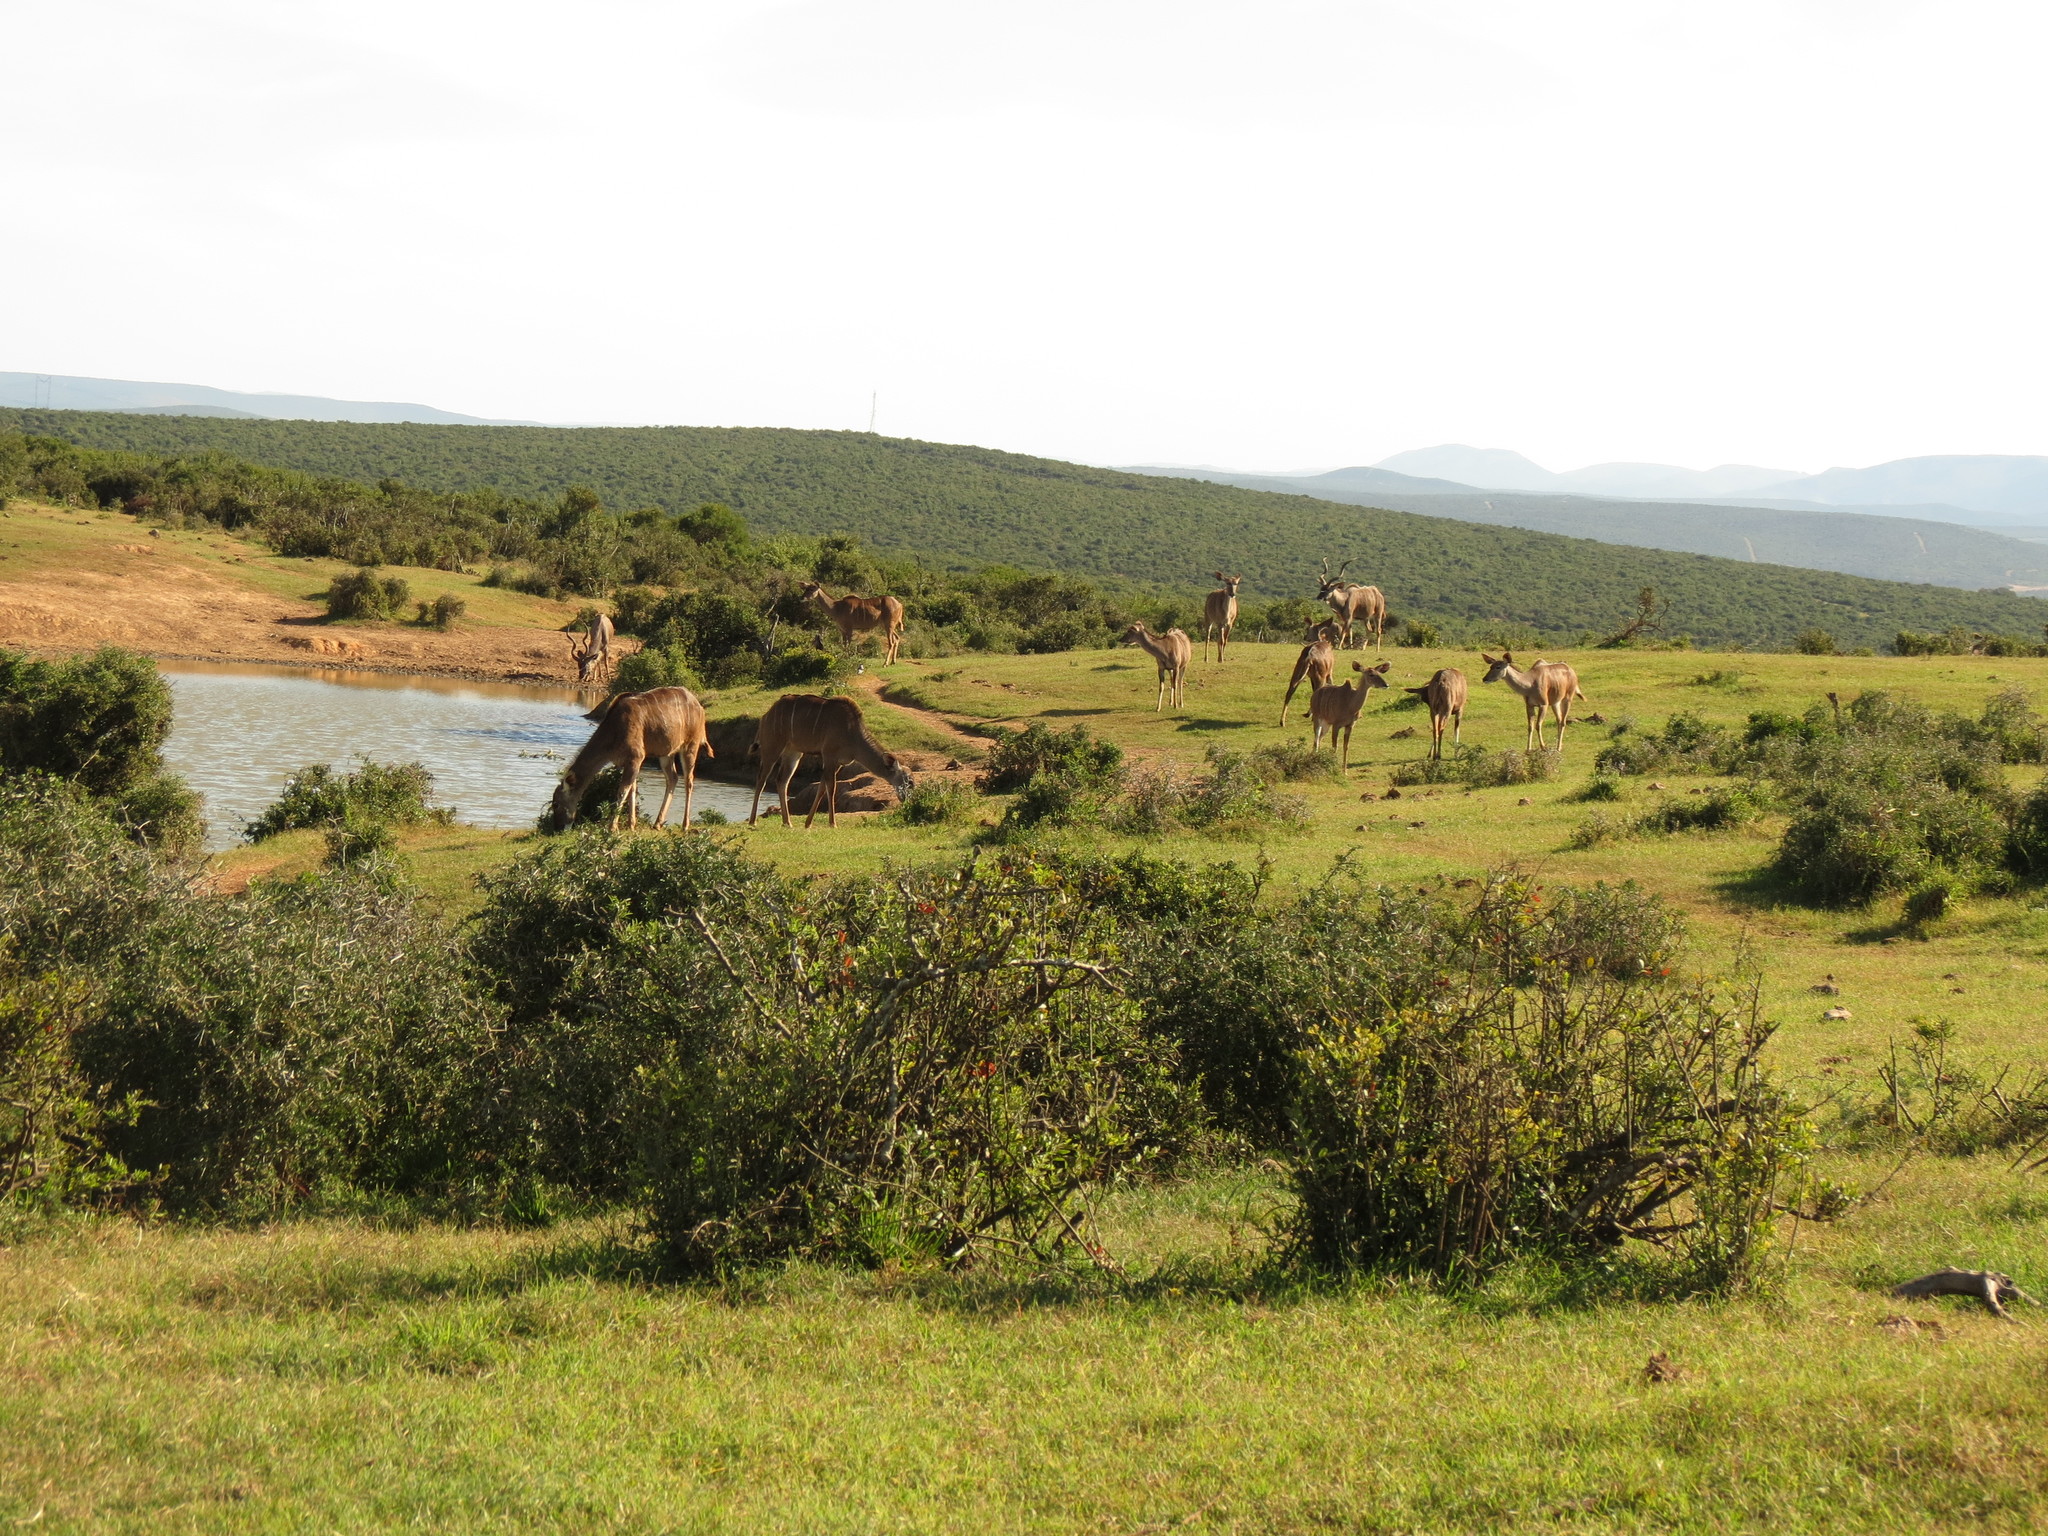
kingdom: Animalia
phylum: Chordata
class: Mammalia
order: Artiodactyla
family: Bovidae
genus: Tragelaphus
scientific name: Tragelaphus strepsiceros
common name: Greater kudu
